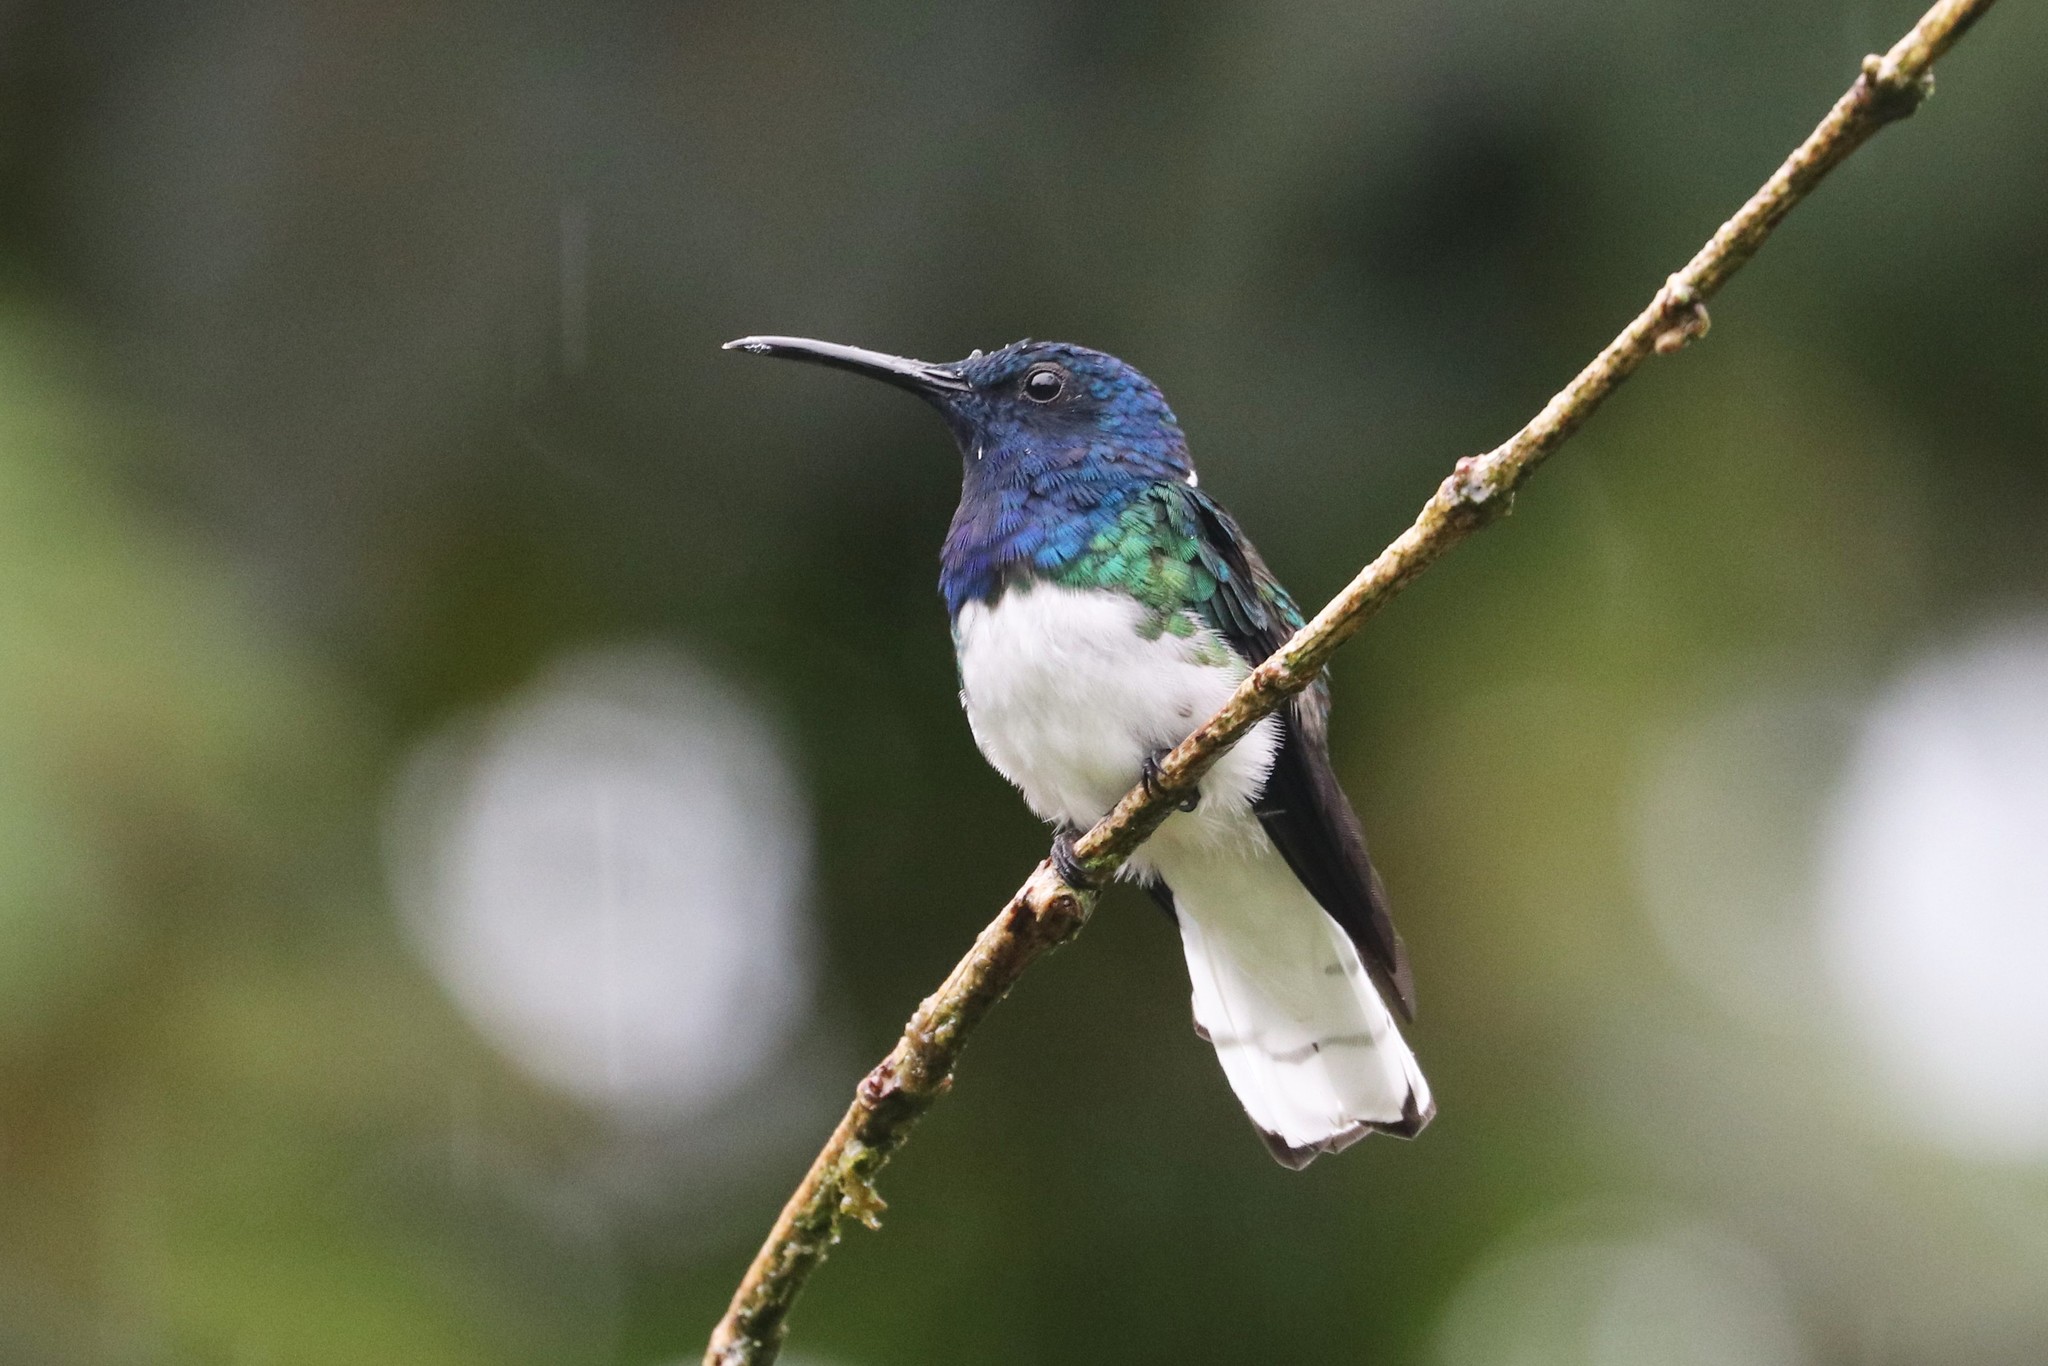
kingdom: Animalia
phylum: Chordata
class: Aves
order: Apodiformes
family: Trochilidae
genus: Florisuga
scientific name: Florisuga mellivora
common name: White-necked jacobin
